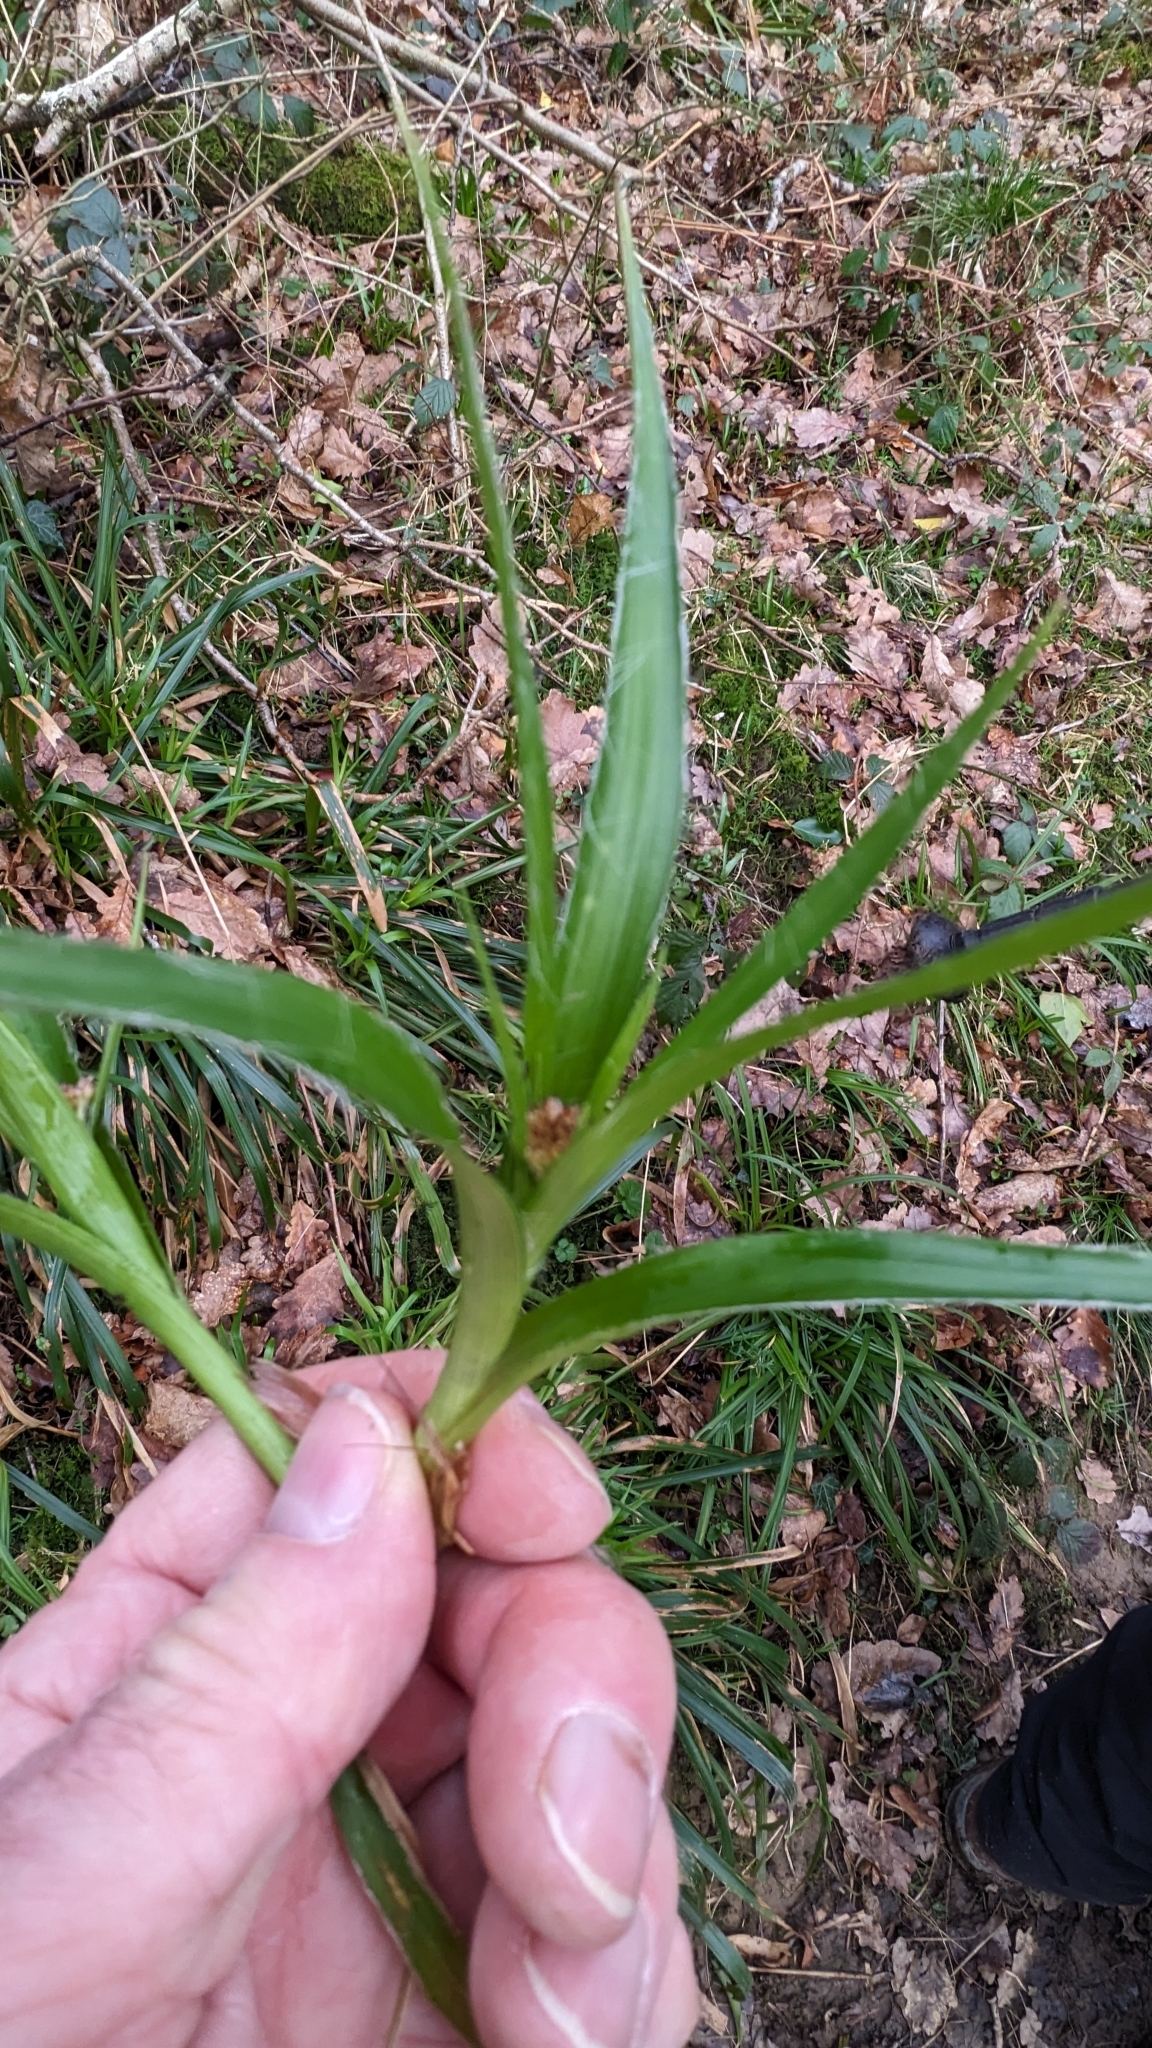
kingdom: Plantae
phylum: Tracheophyta
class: Liliopsida
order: Poales
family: Juncaceae
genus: Luzula
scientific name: Luzula sylvatica
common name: Great wood-rush
